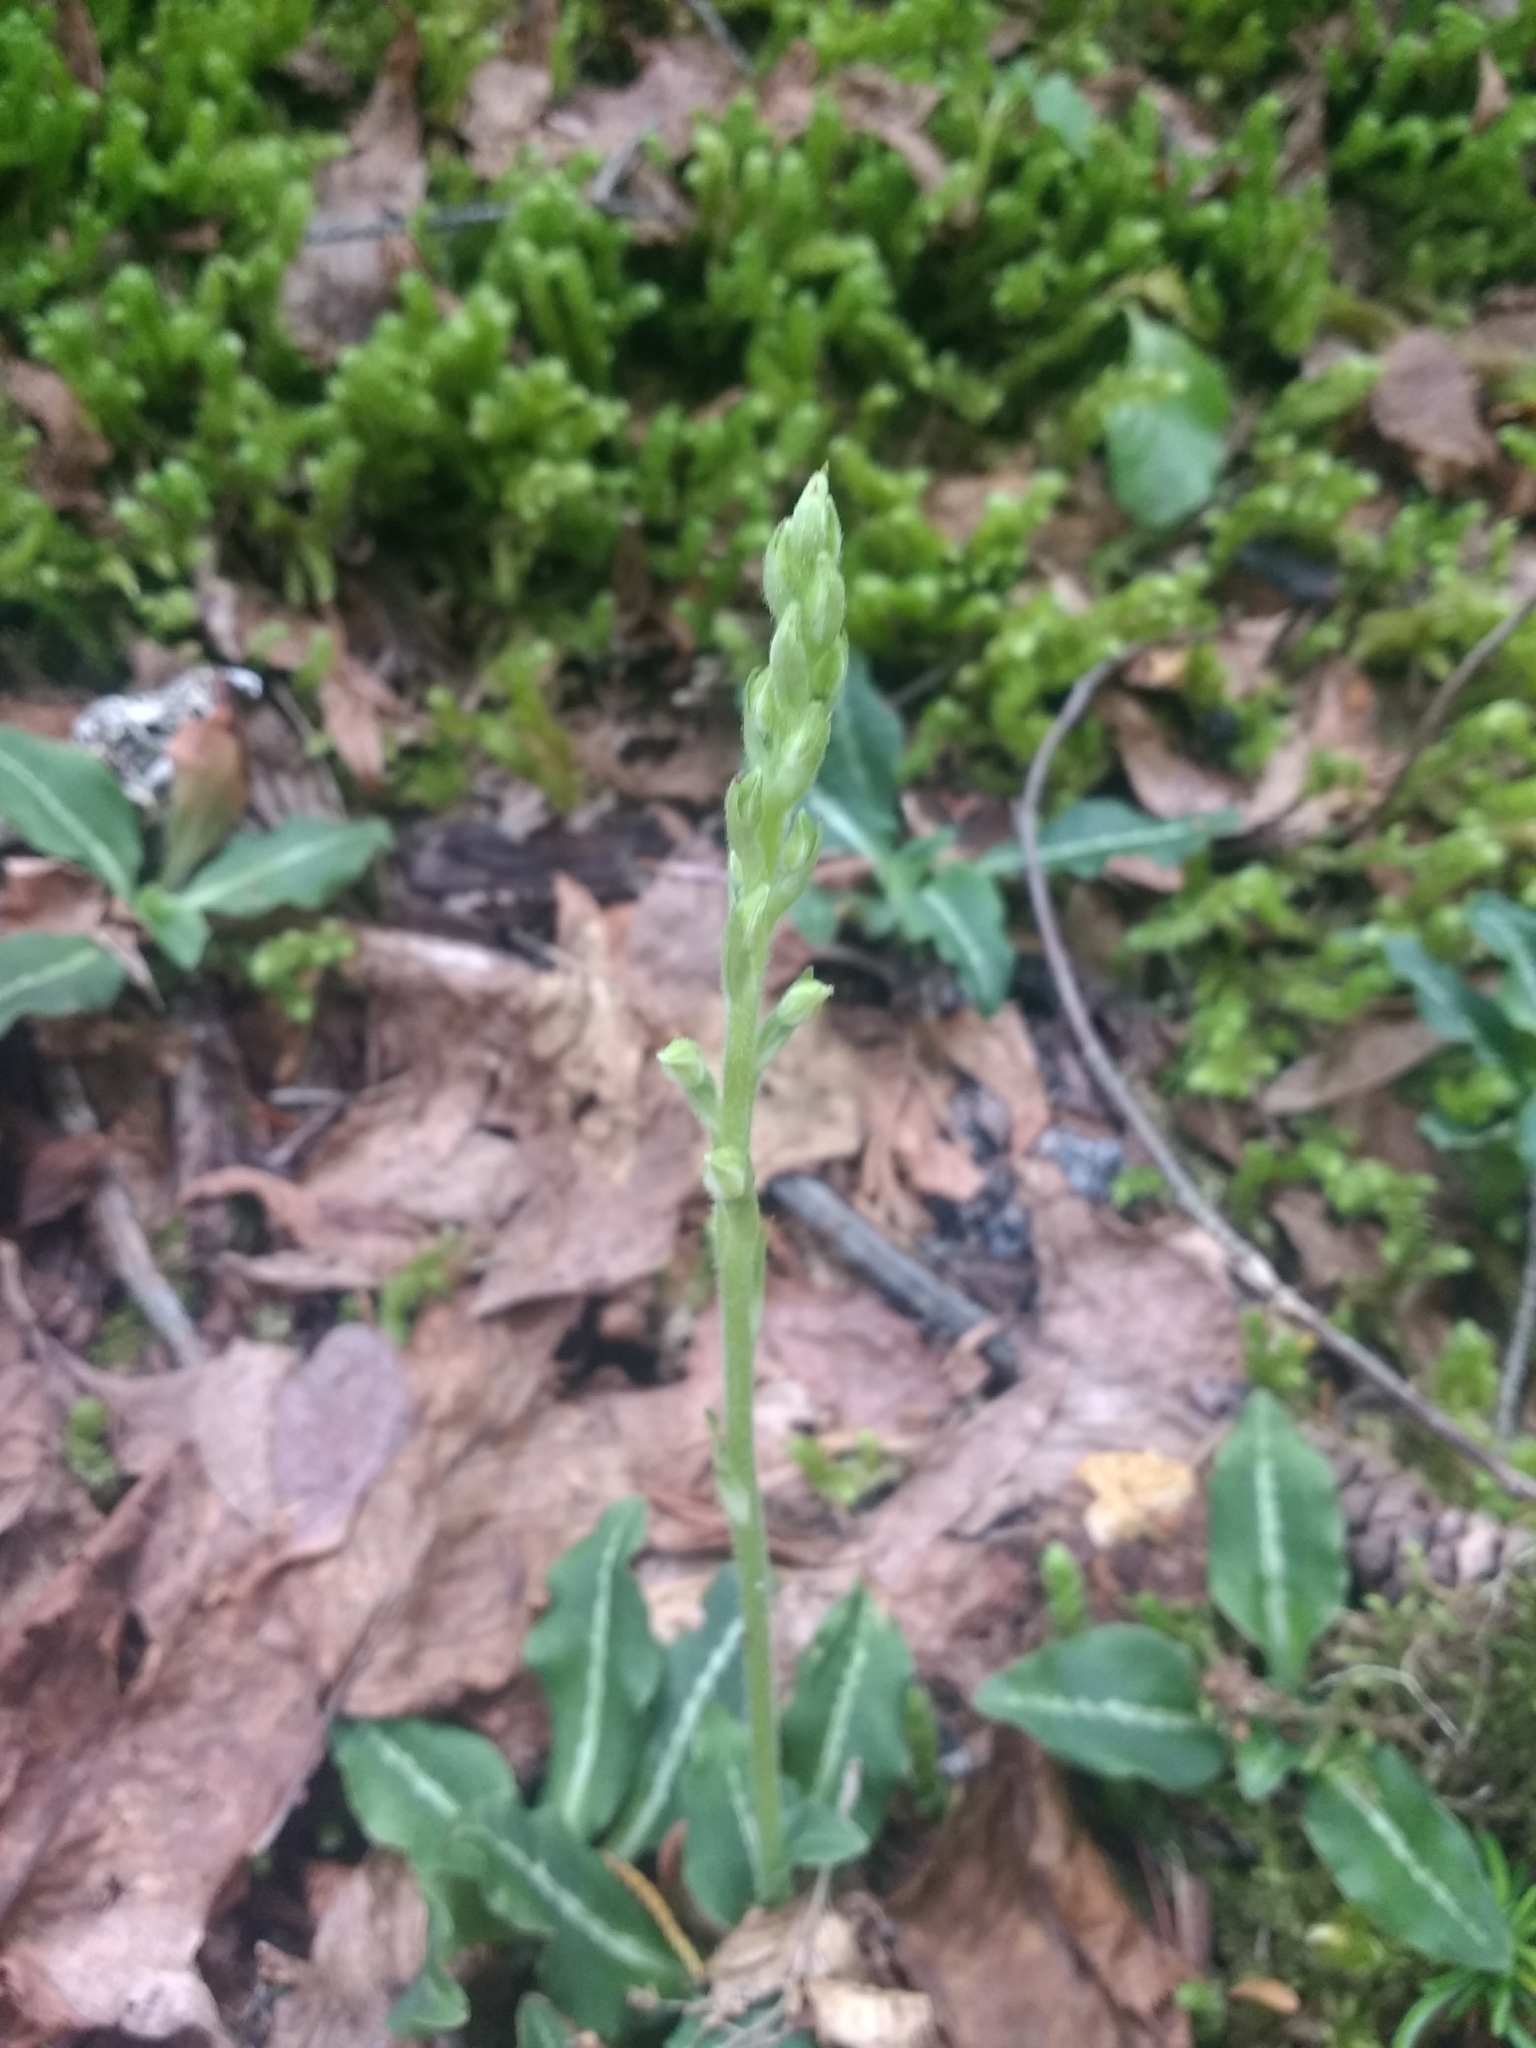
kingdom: Plantae
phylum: Tracheophyta
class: Liliopsida
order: Asparagales
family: Orchidaceae
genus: Goodyera
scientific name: Goodyera oblongifolia
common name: Giant rattlesnake-plantain
